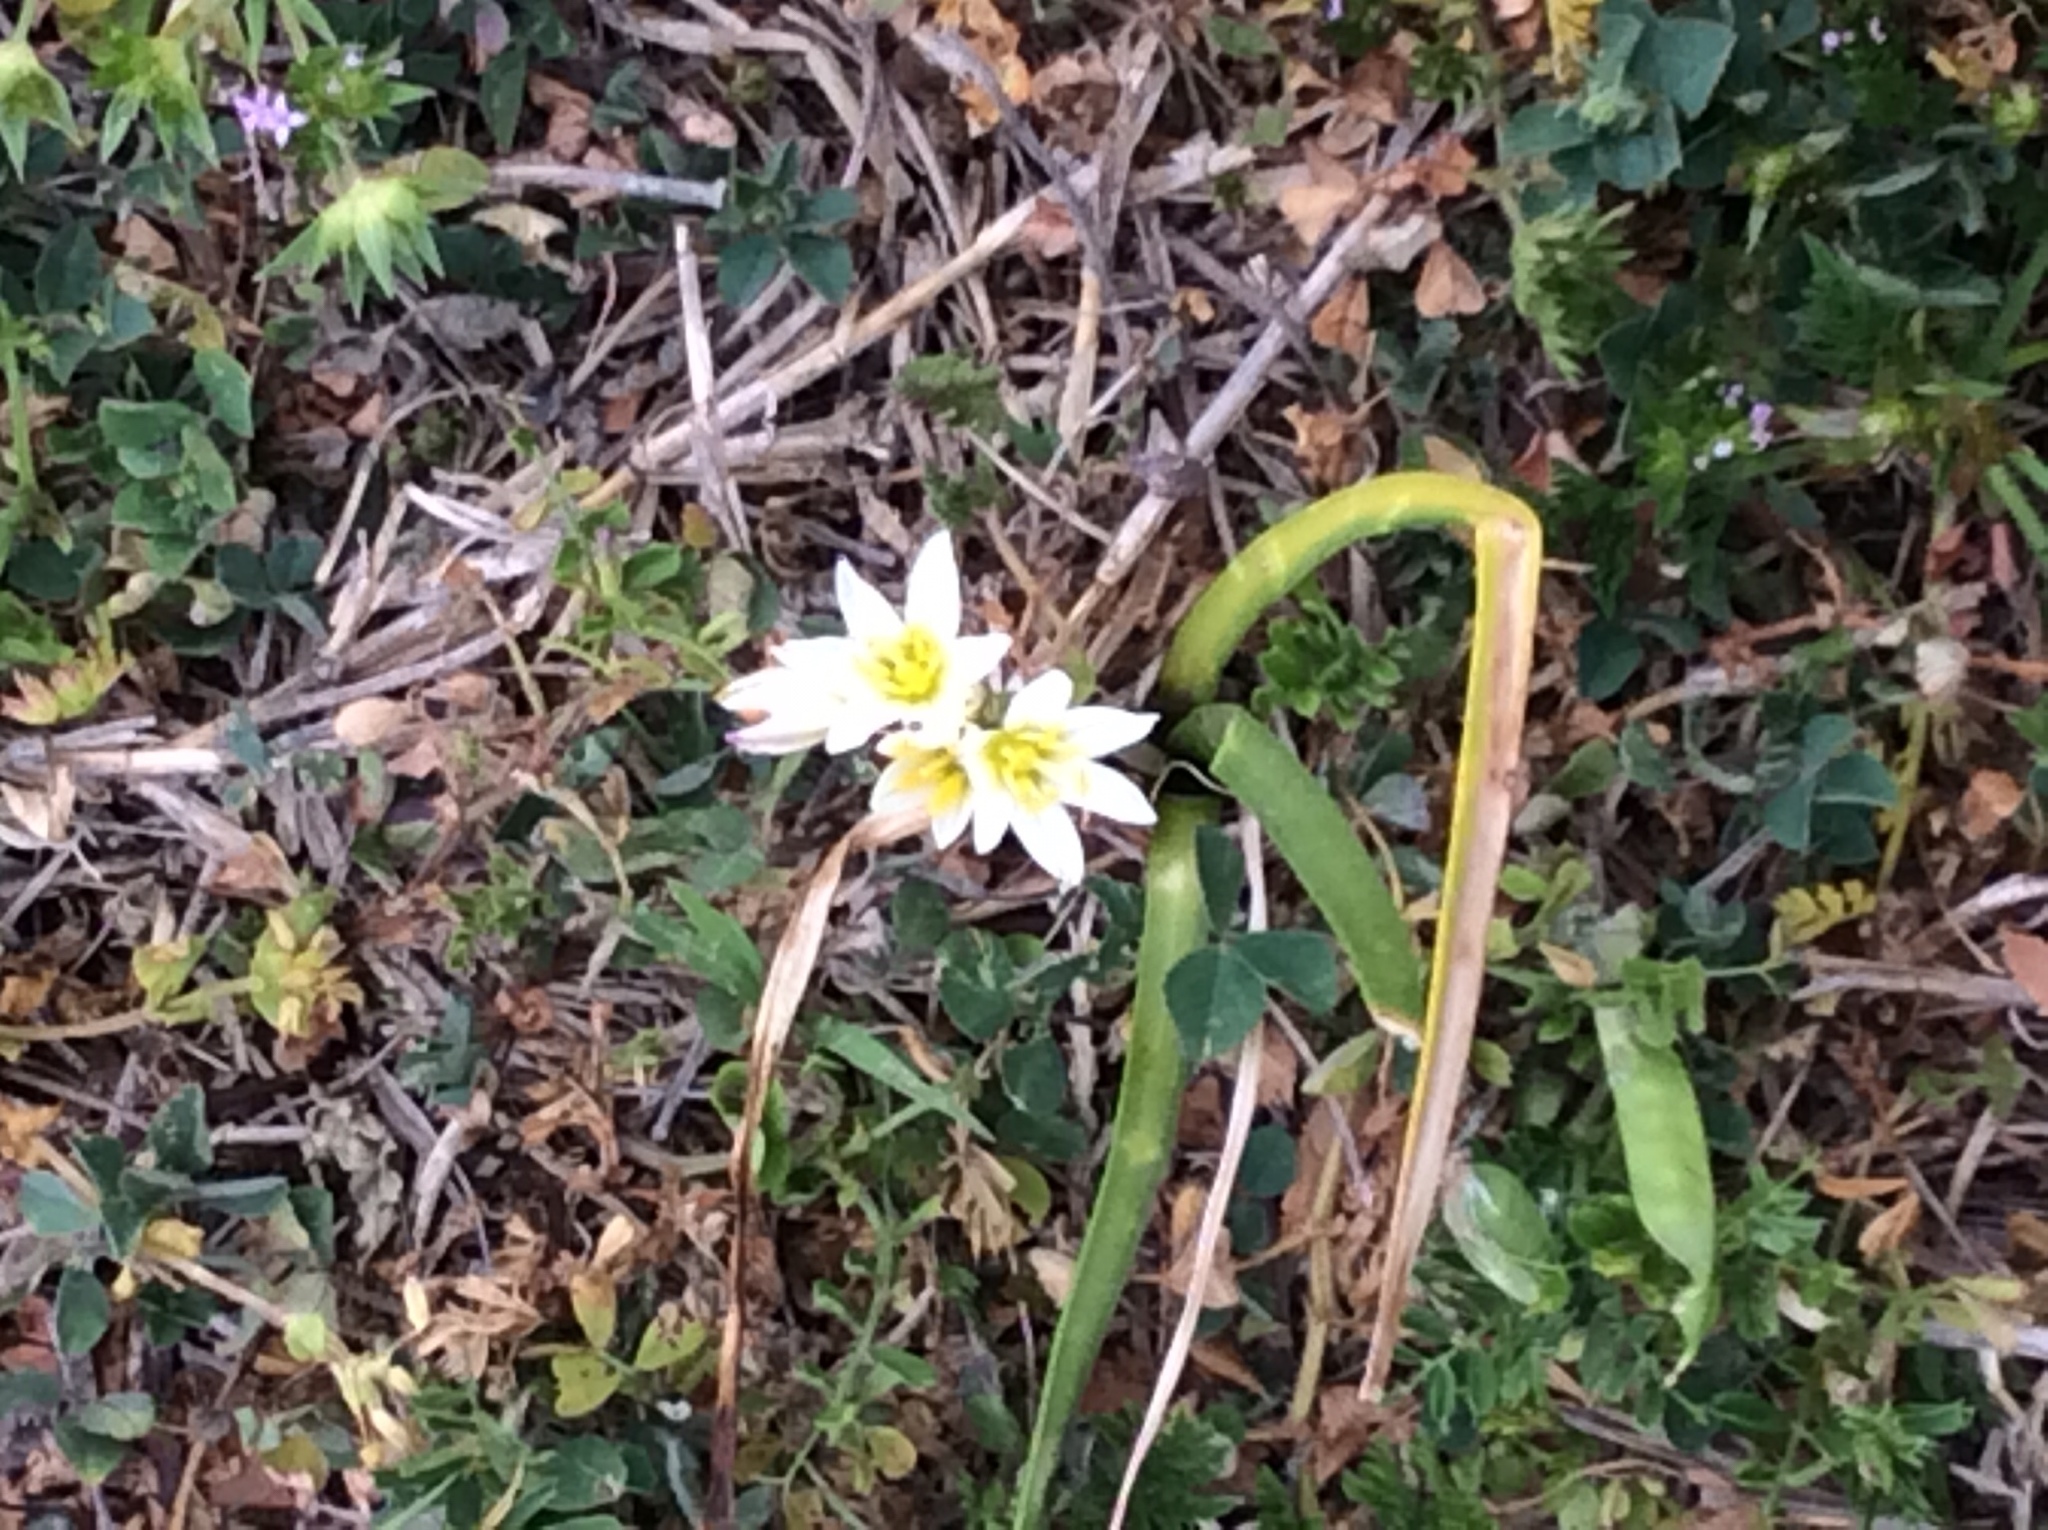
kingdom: Plantae
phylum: Tracheophyta
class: Liliopsida
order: Asparagales
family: Amaryllidaceae
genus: Nothoscordum
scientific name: Nothoscordum bivalve
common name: Crow-poison
